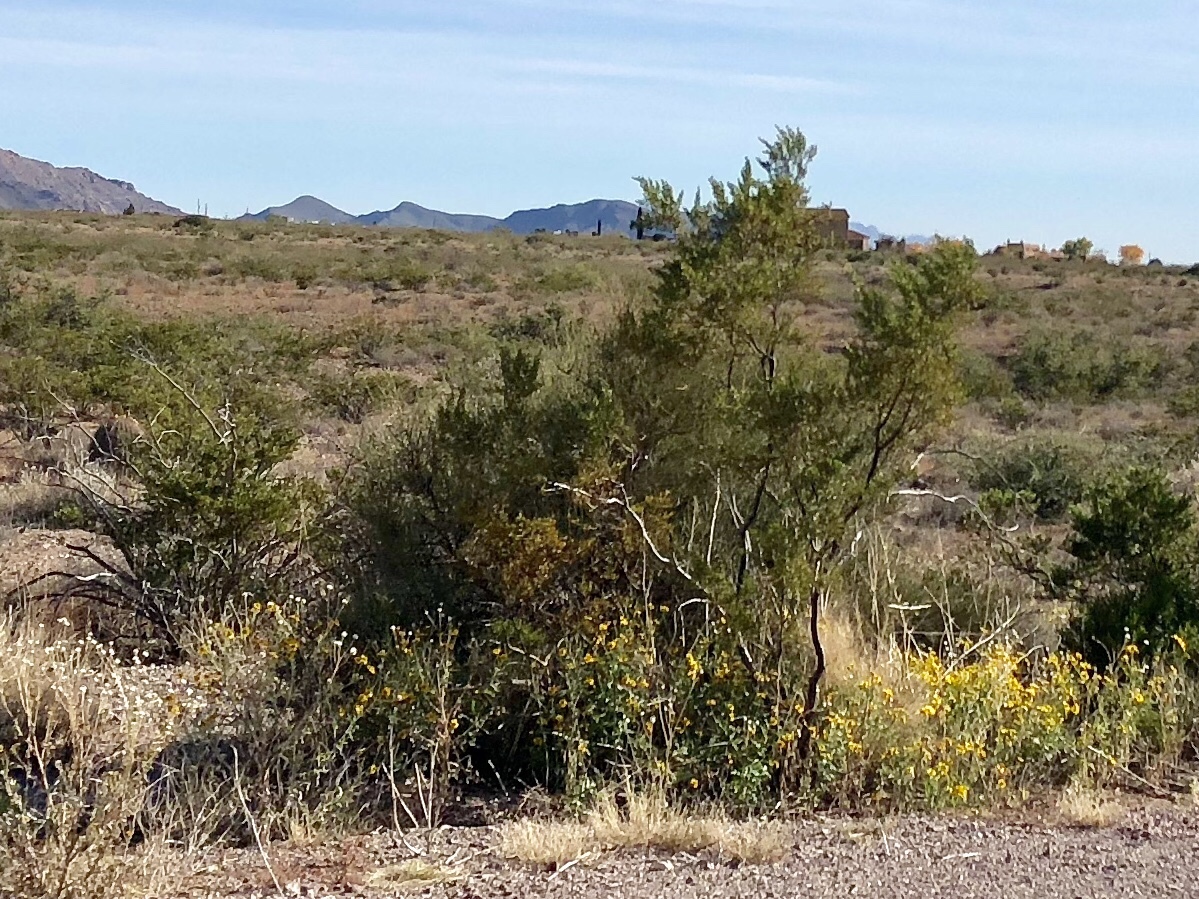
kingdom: Plantae
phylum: Tracheophyta
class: Magnoliopsida
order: Zygophyllales
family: Zygophyllaceae
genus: Larrea
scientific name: Larrea tridentata
